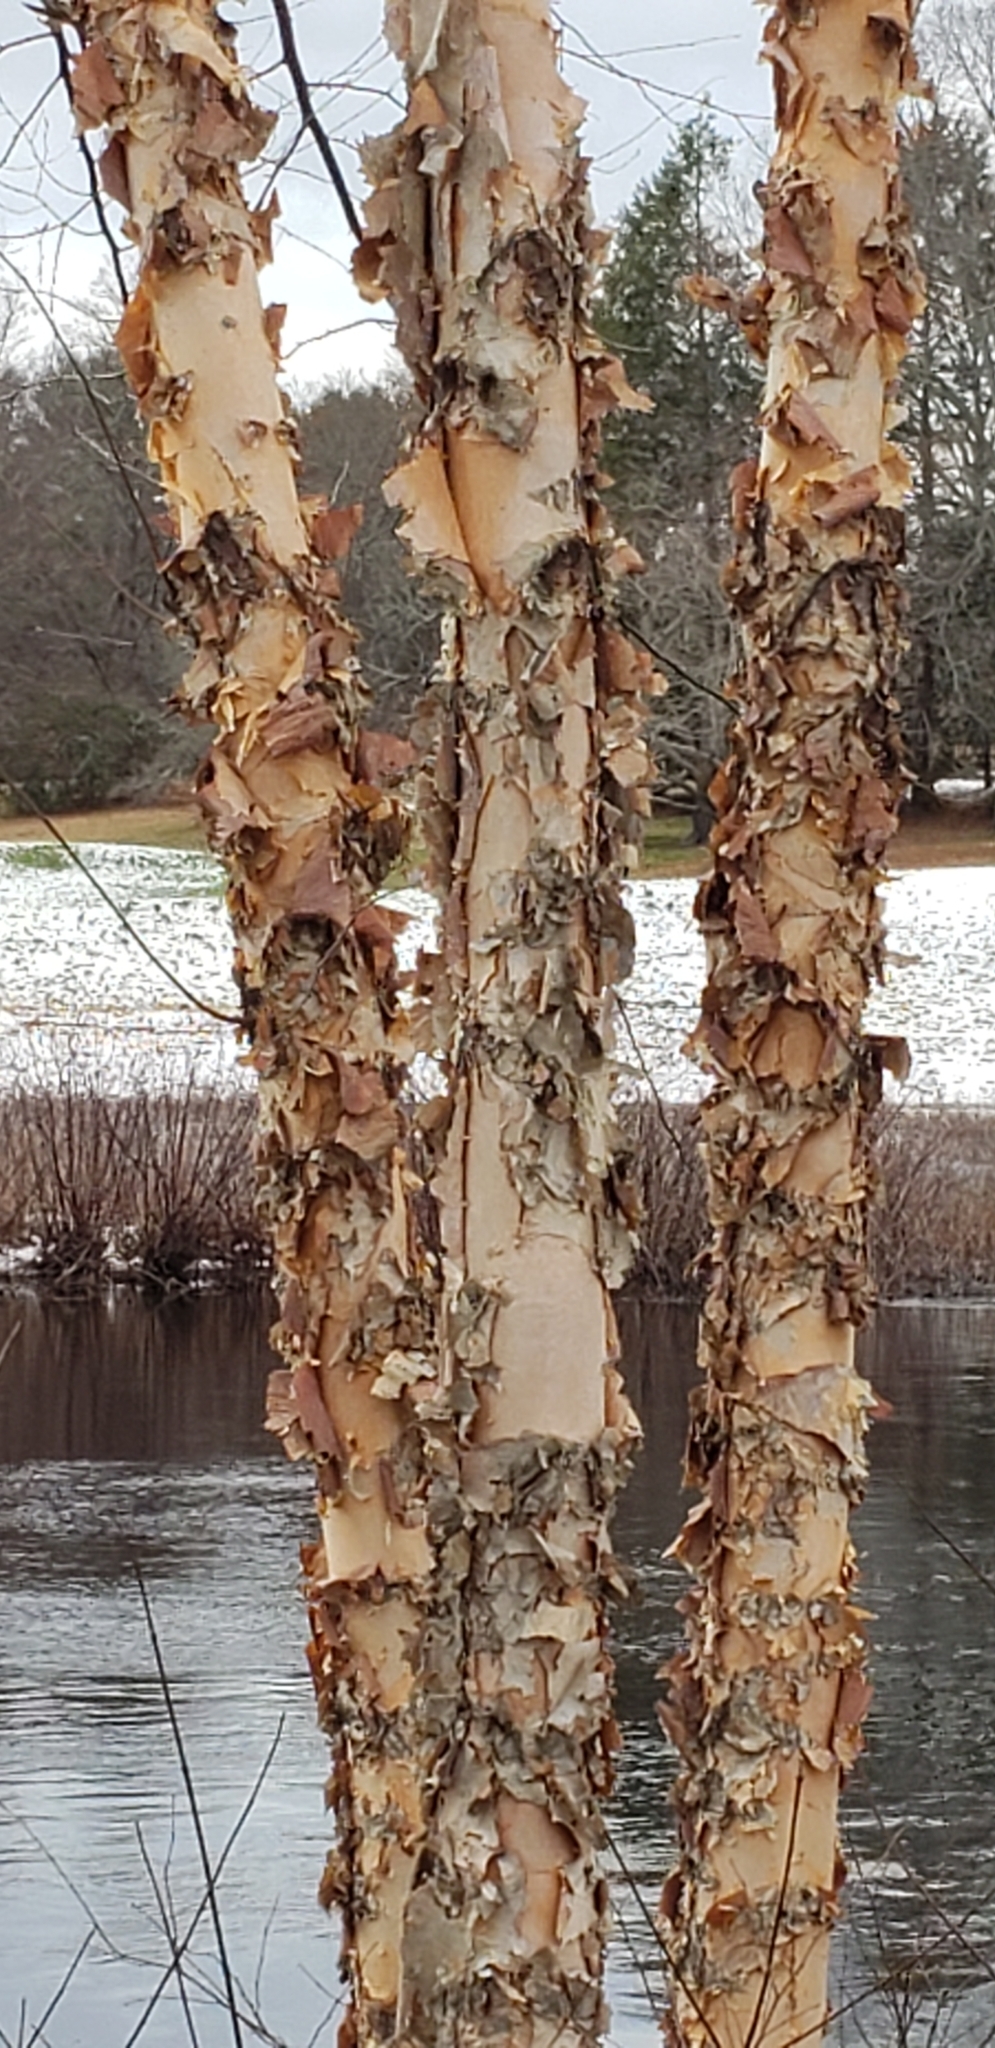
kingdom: Plantae
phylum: Tracheophyta
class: Magnoliopsida
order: Fagales
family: Betulaceae
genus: Betula
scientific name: Betula nigra
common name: Black birch
